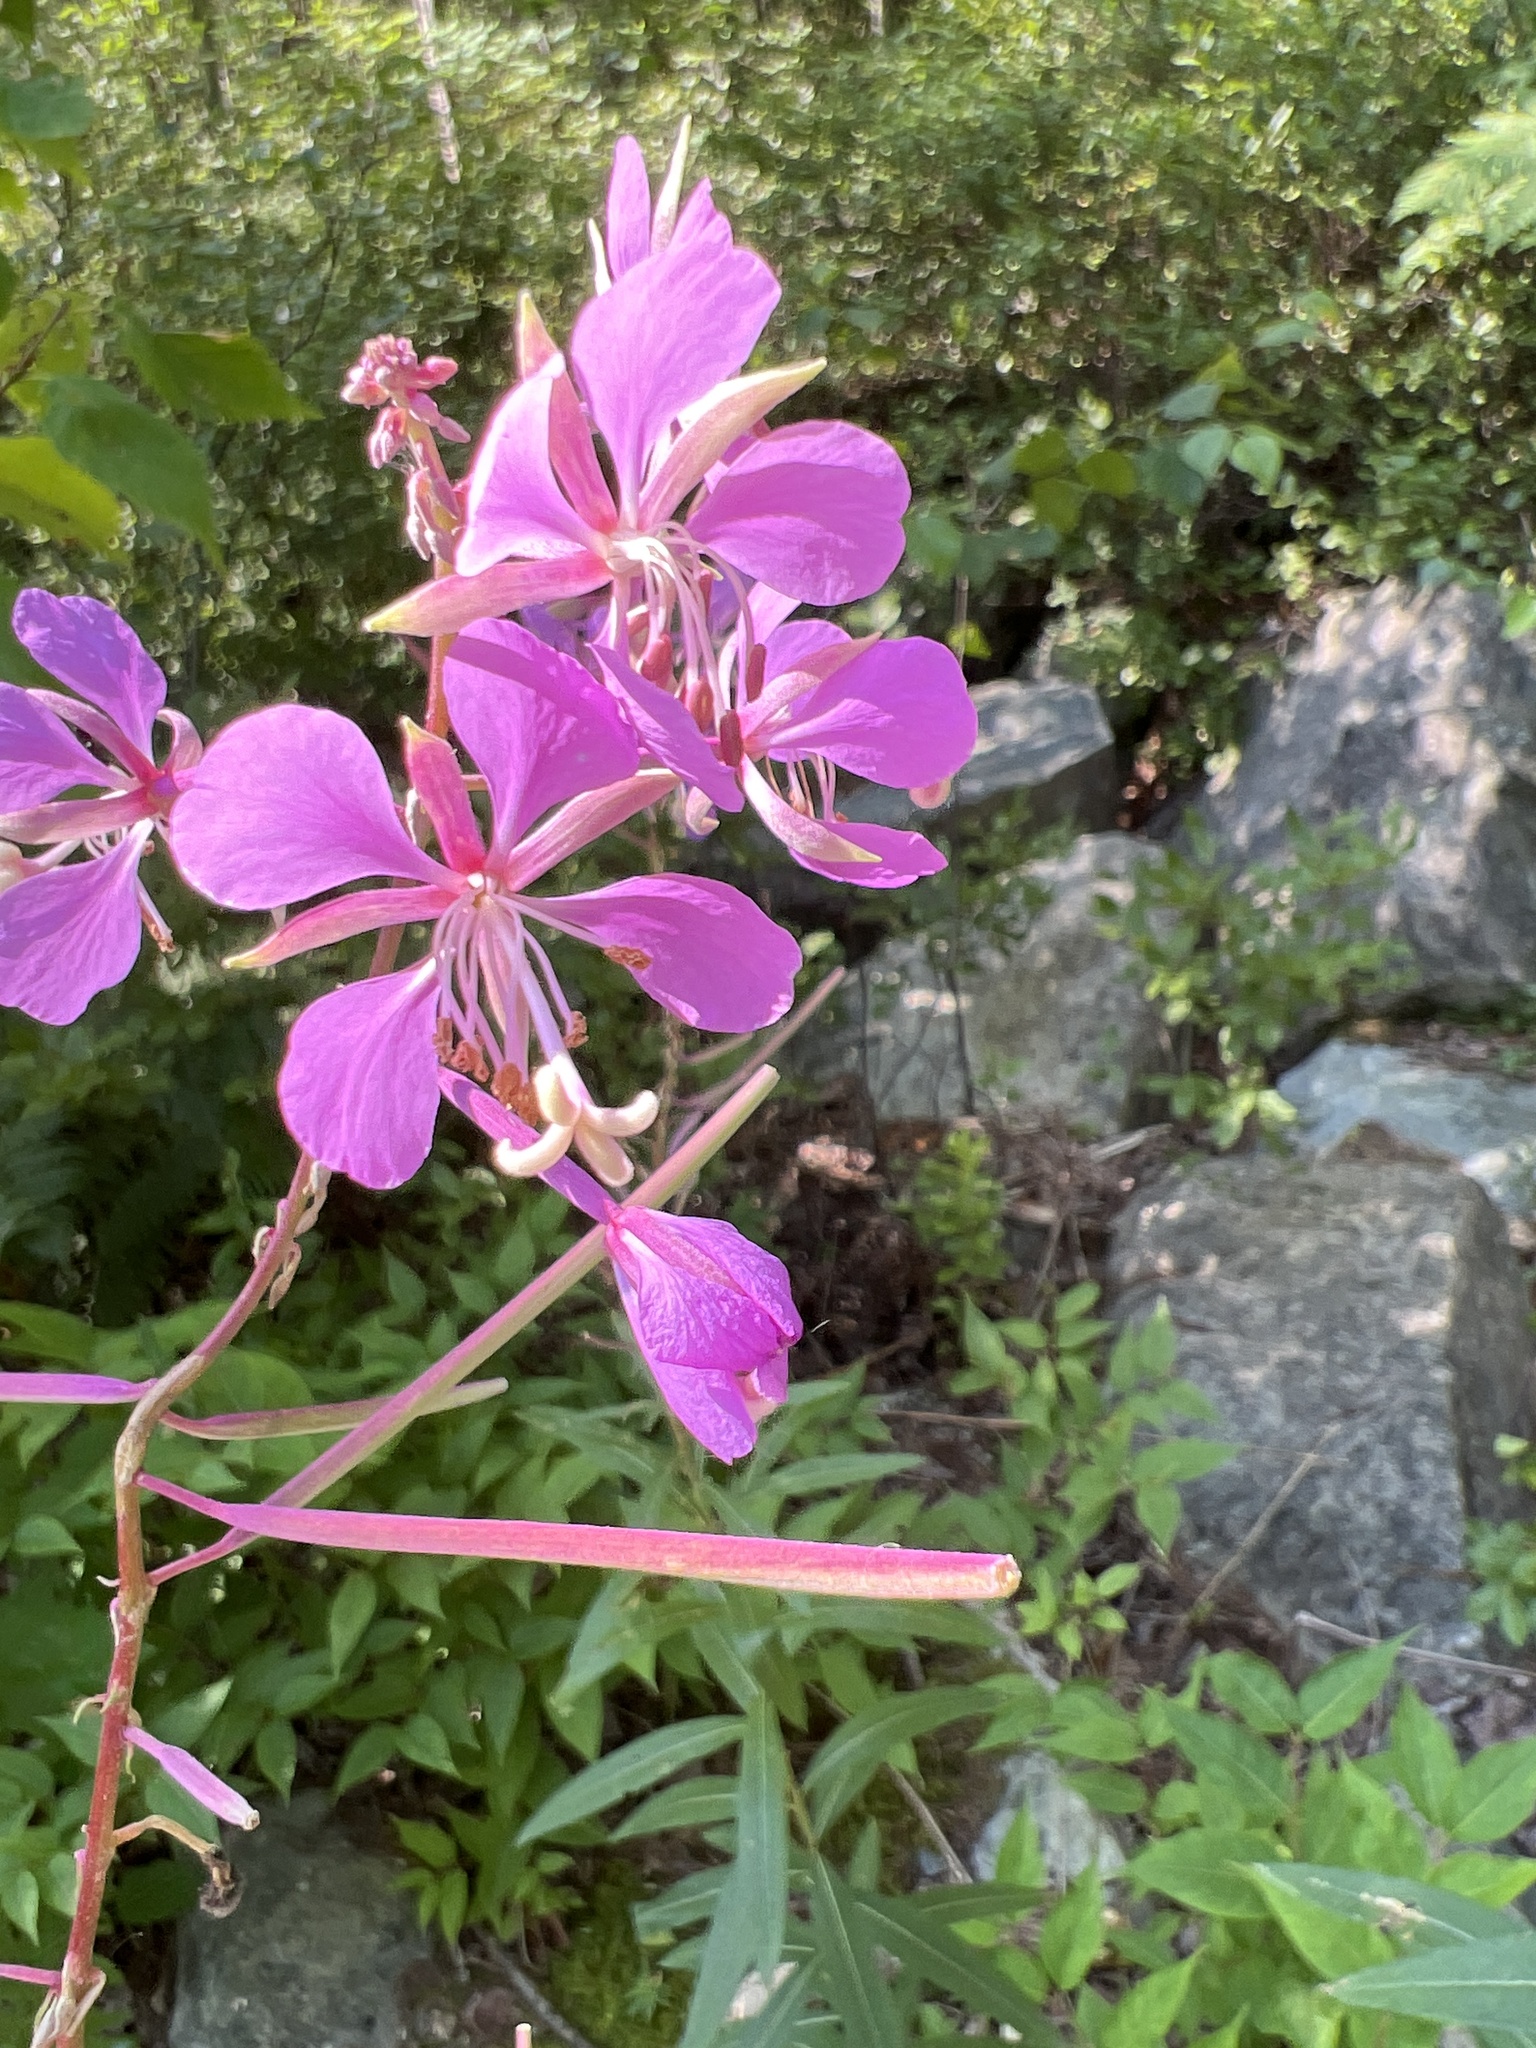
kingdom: Plantae
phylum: Tracheophyta
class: Magnoliopsida
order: Myrtales
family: Onagraceae
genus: Chamaenerion
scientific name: Chamaenerion angustifolium
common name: Fireweed
